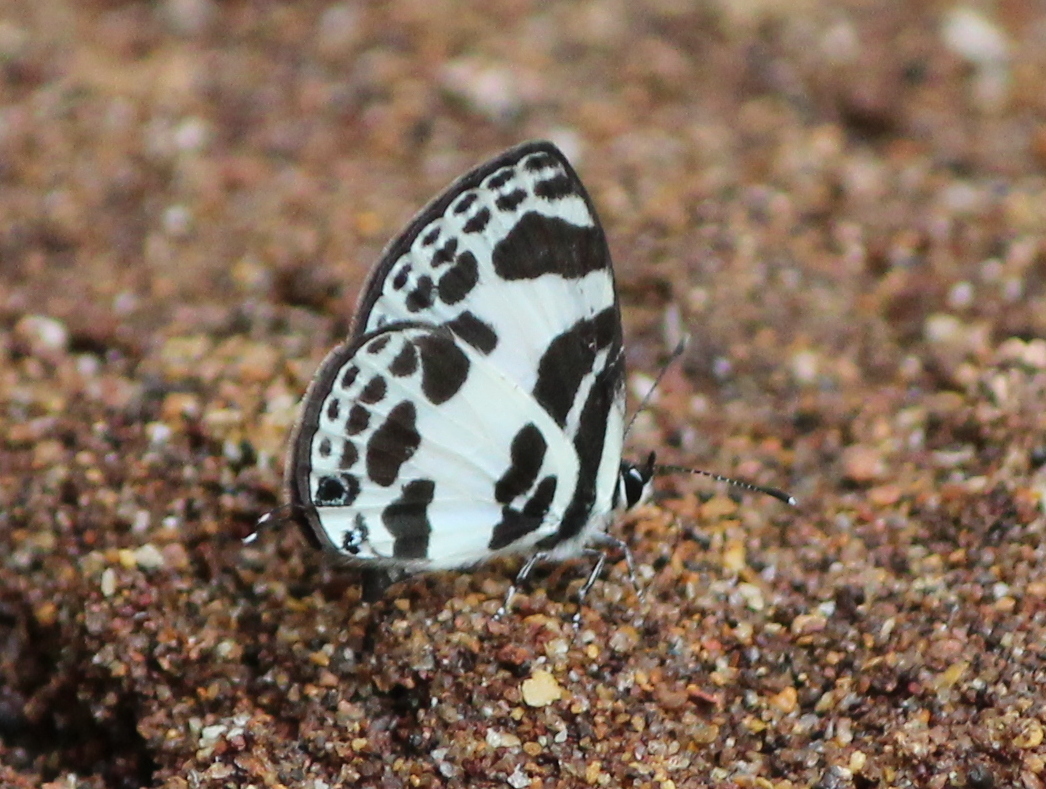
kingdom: Animalia
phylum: Arthropoda
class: Insecta
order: Lepidoptera
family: Lycaenidae
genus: Discolampa
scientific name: Discolampa ethion
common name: Banded blue pierrot
